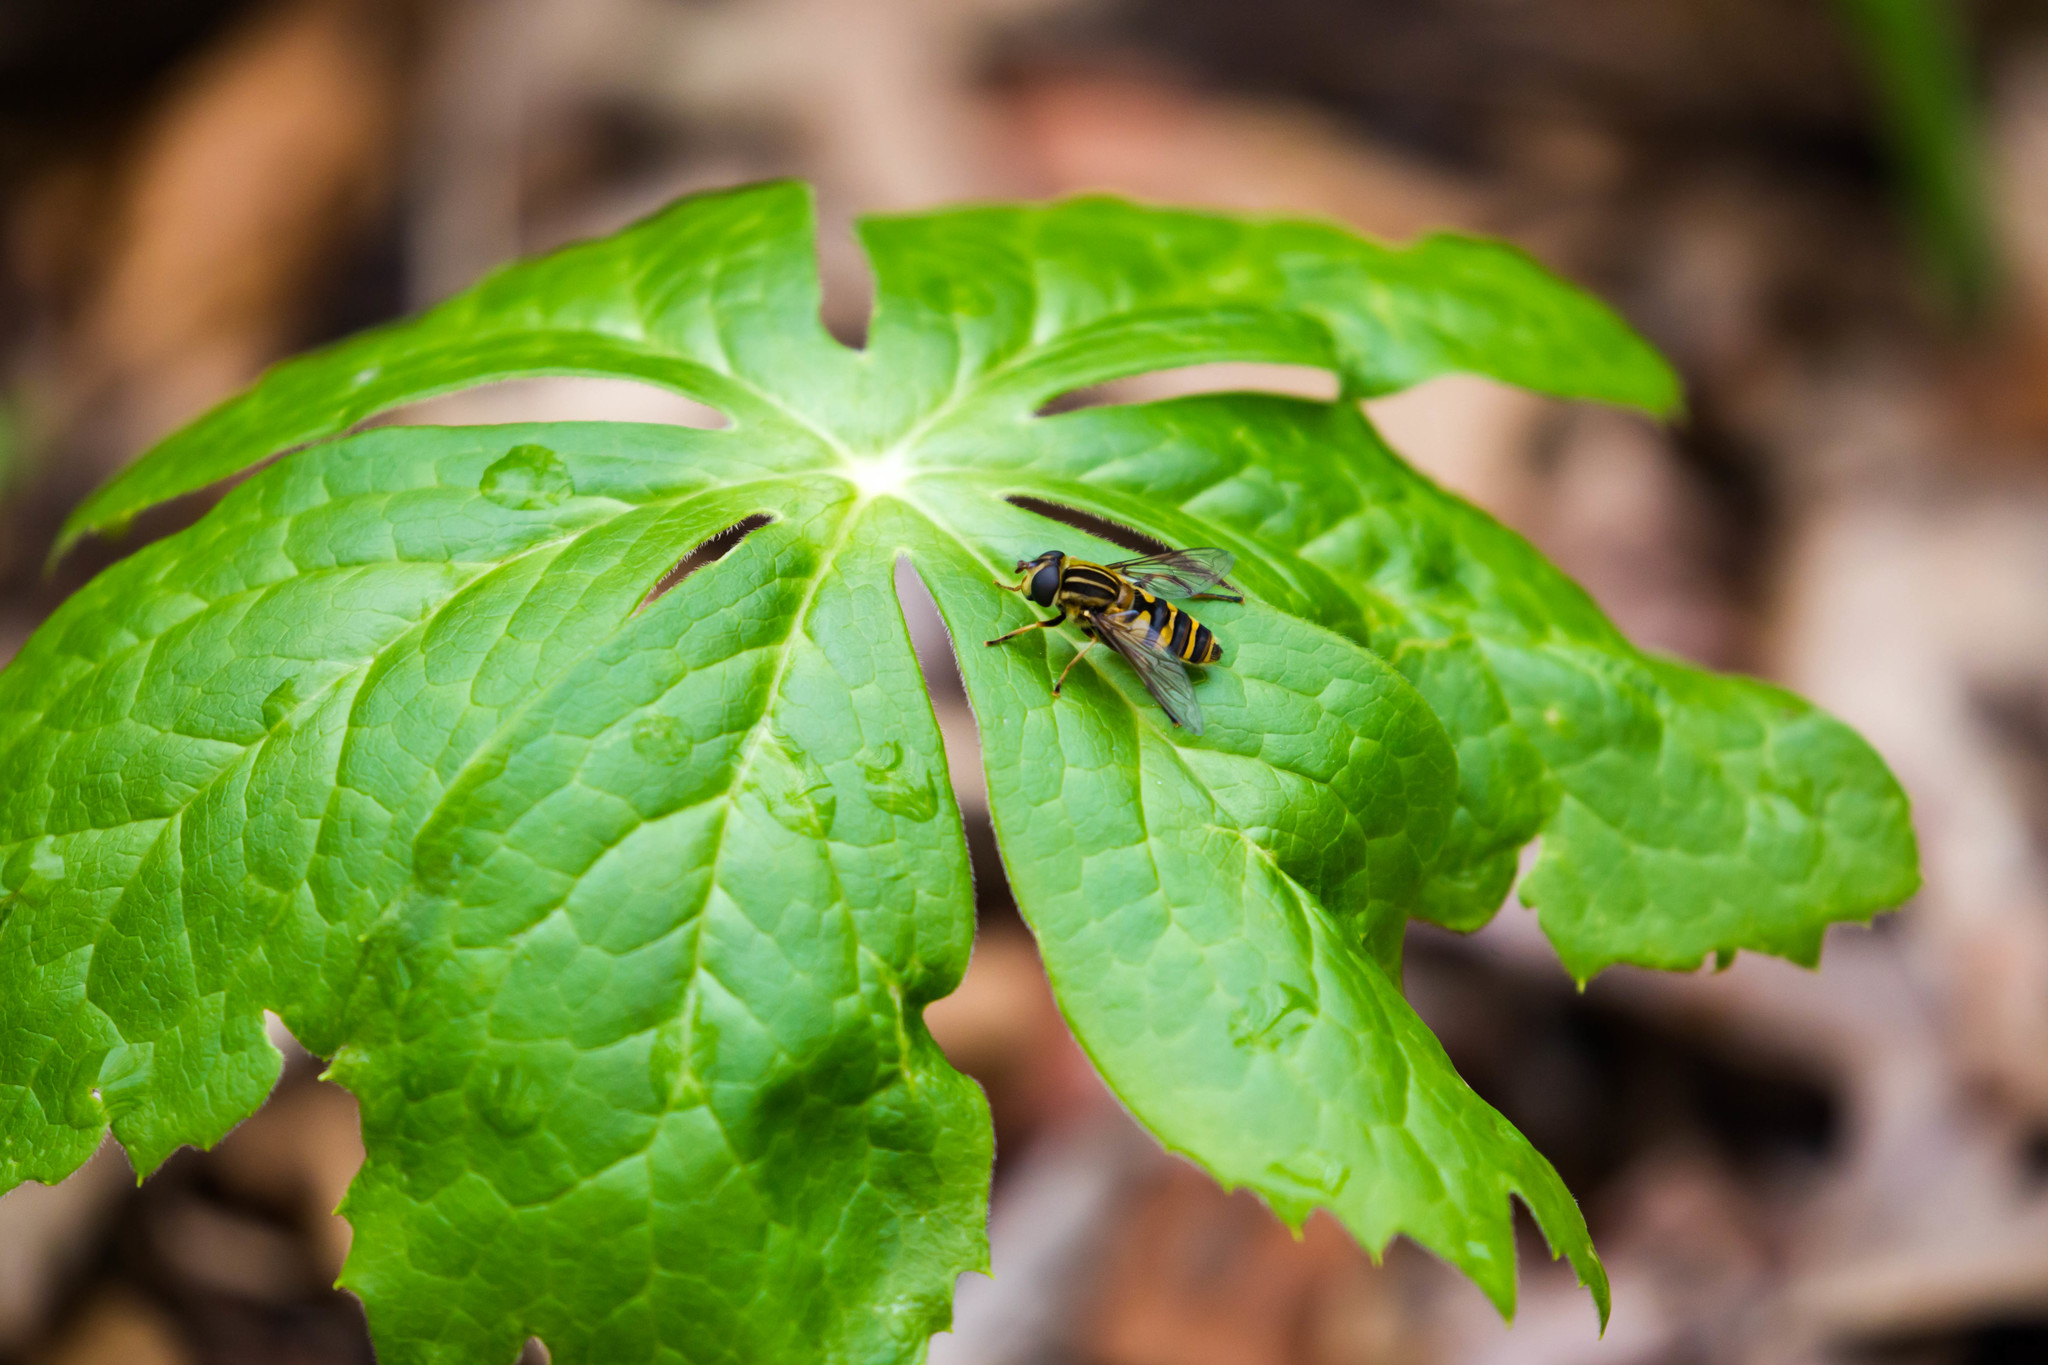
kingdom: Animalia
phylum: Arthropoda
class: Insecta
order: Diptera
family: Syrphidae
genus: Helophilus
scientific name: Helophilus fasciatus
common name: Narrow-headed marsh fly
